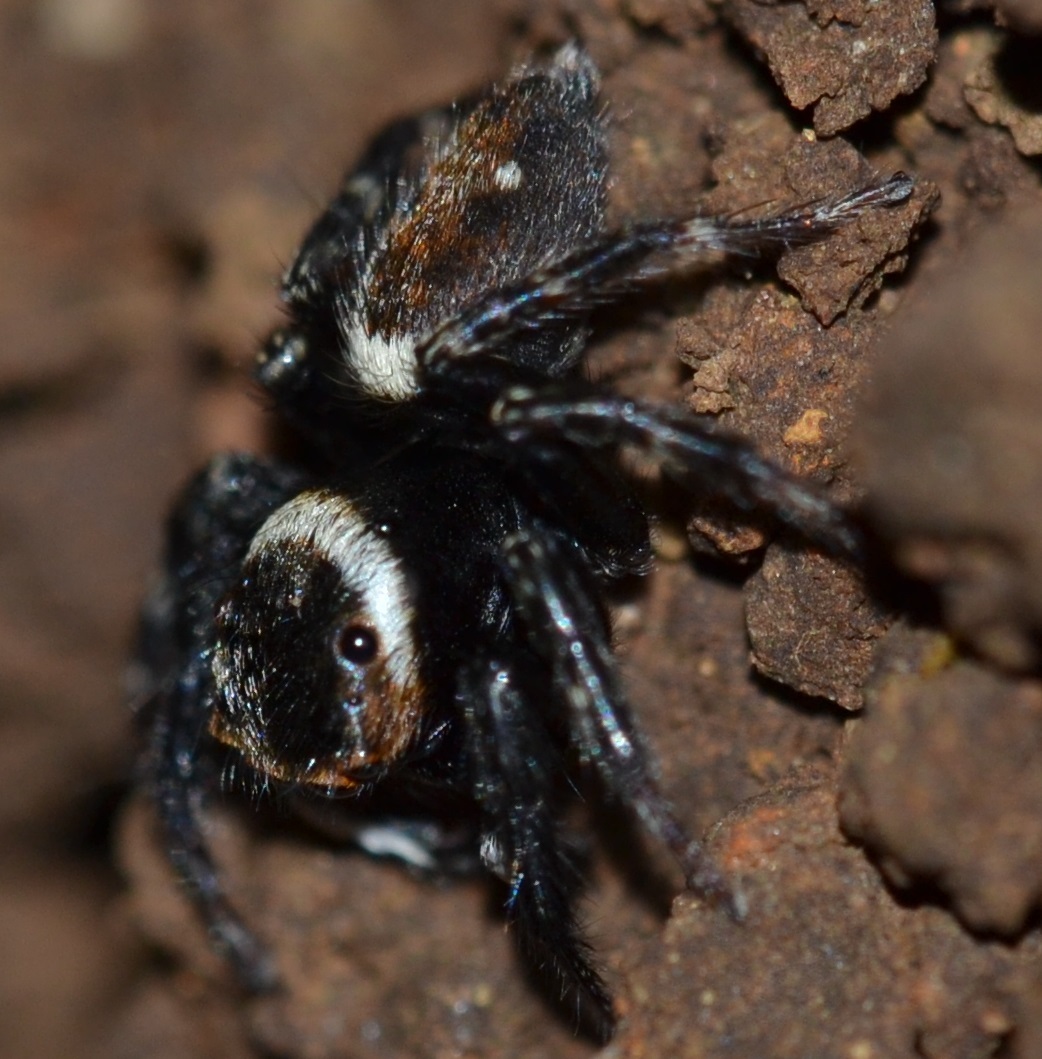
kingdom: Animalia
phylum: Arthropoda
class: Arachnida
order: Araneae
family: Salticidae
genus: Hasarius
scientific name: Hasarius adansoni
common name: Jumping spider
